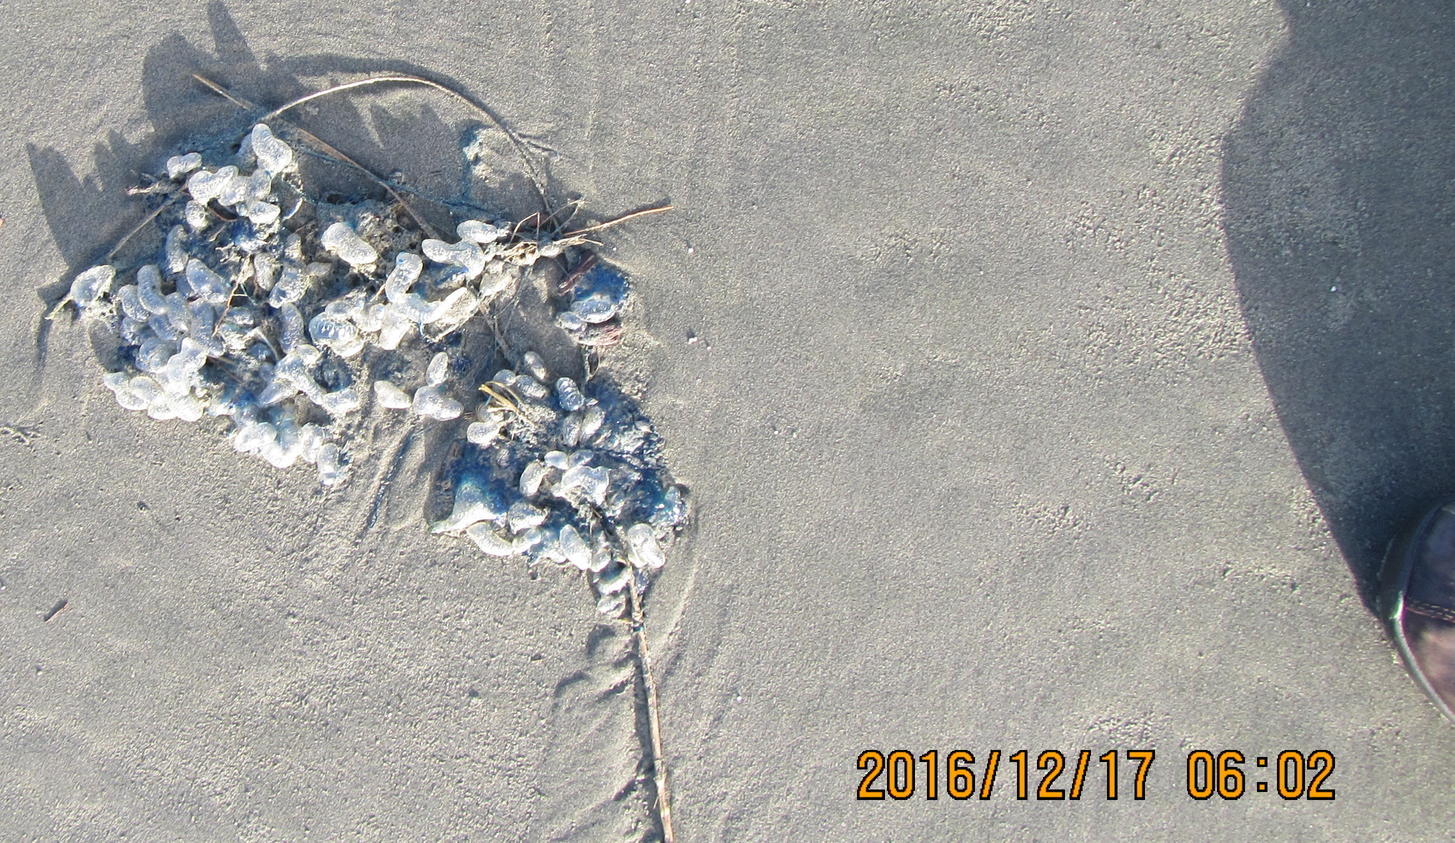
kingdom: Animalia
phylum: Cnidaria
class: Hydrozoa
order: Siphonophorae
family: Physaliidae
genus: Physalia
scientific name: Physalia physalis
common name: Portuguese man-of-war
